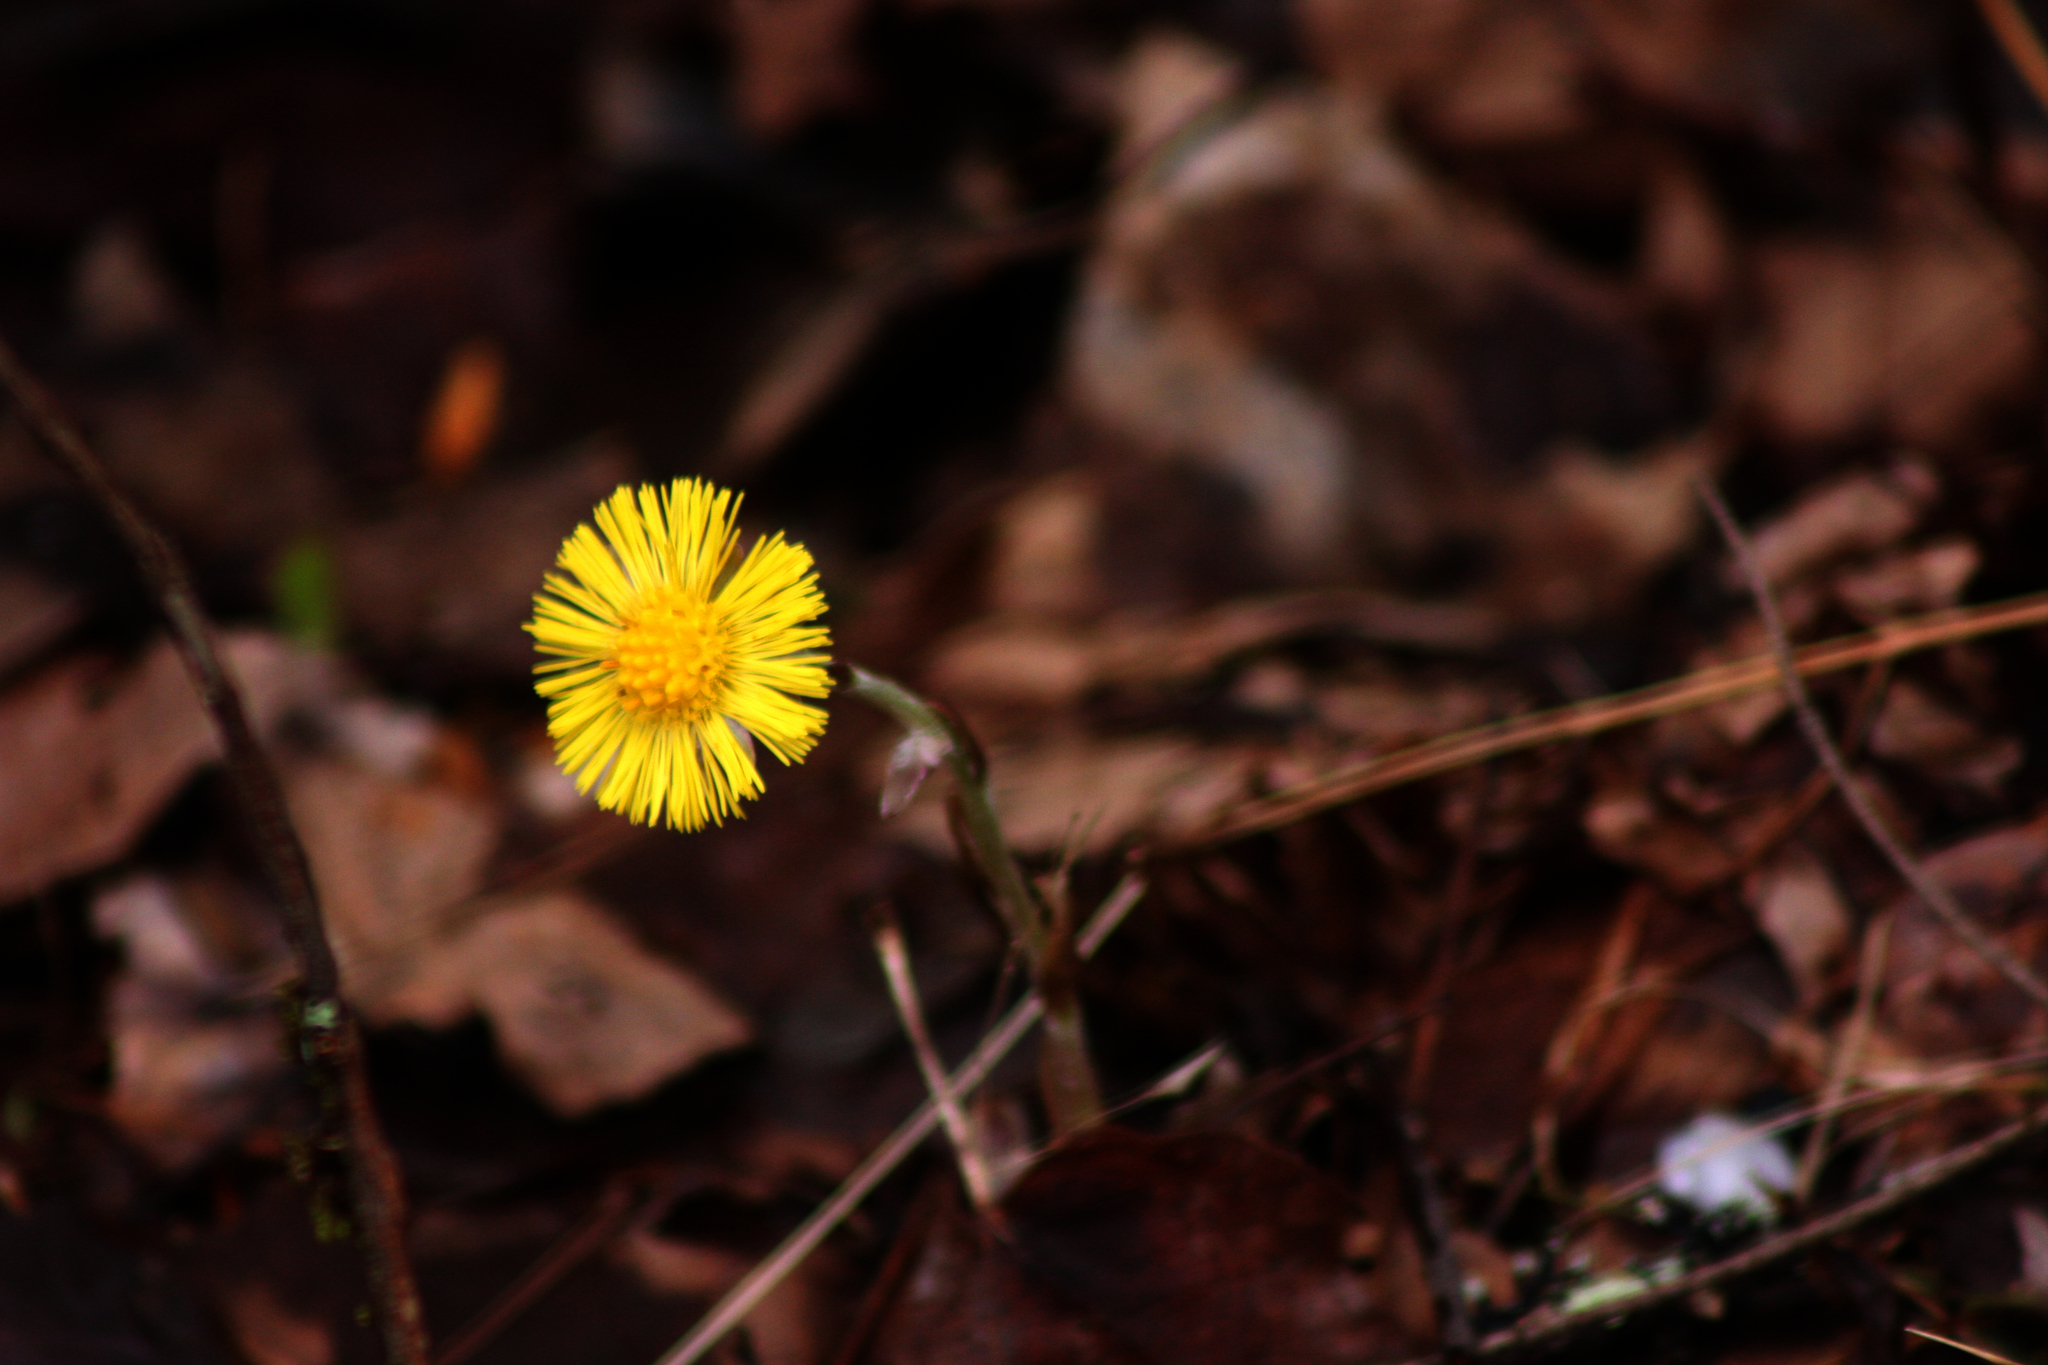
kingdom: Plantae
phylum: Tracheophyta
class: Magnoliopsida
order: Asterales
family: Asteraceae
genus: Tussilago
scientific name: Tussilago farfara
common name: Coltsfoot
